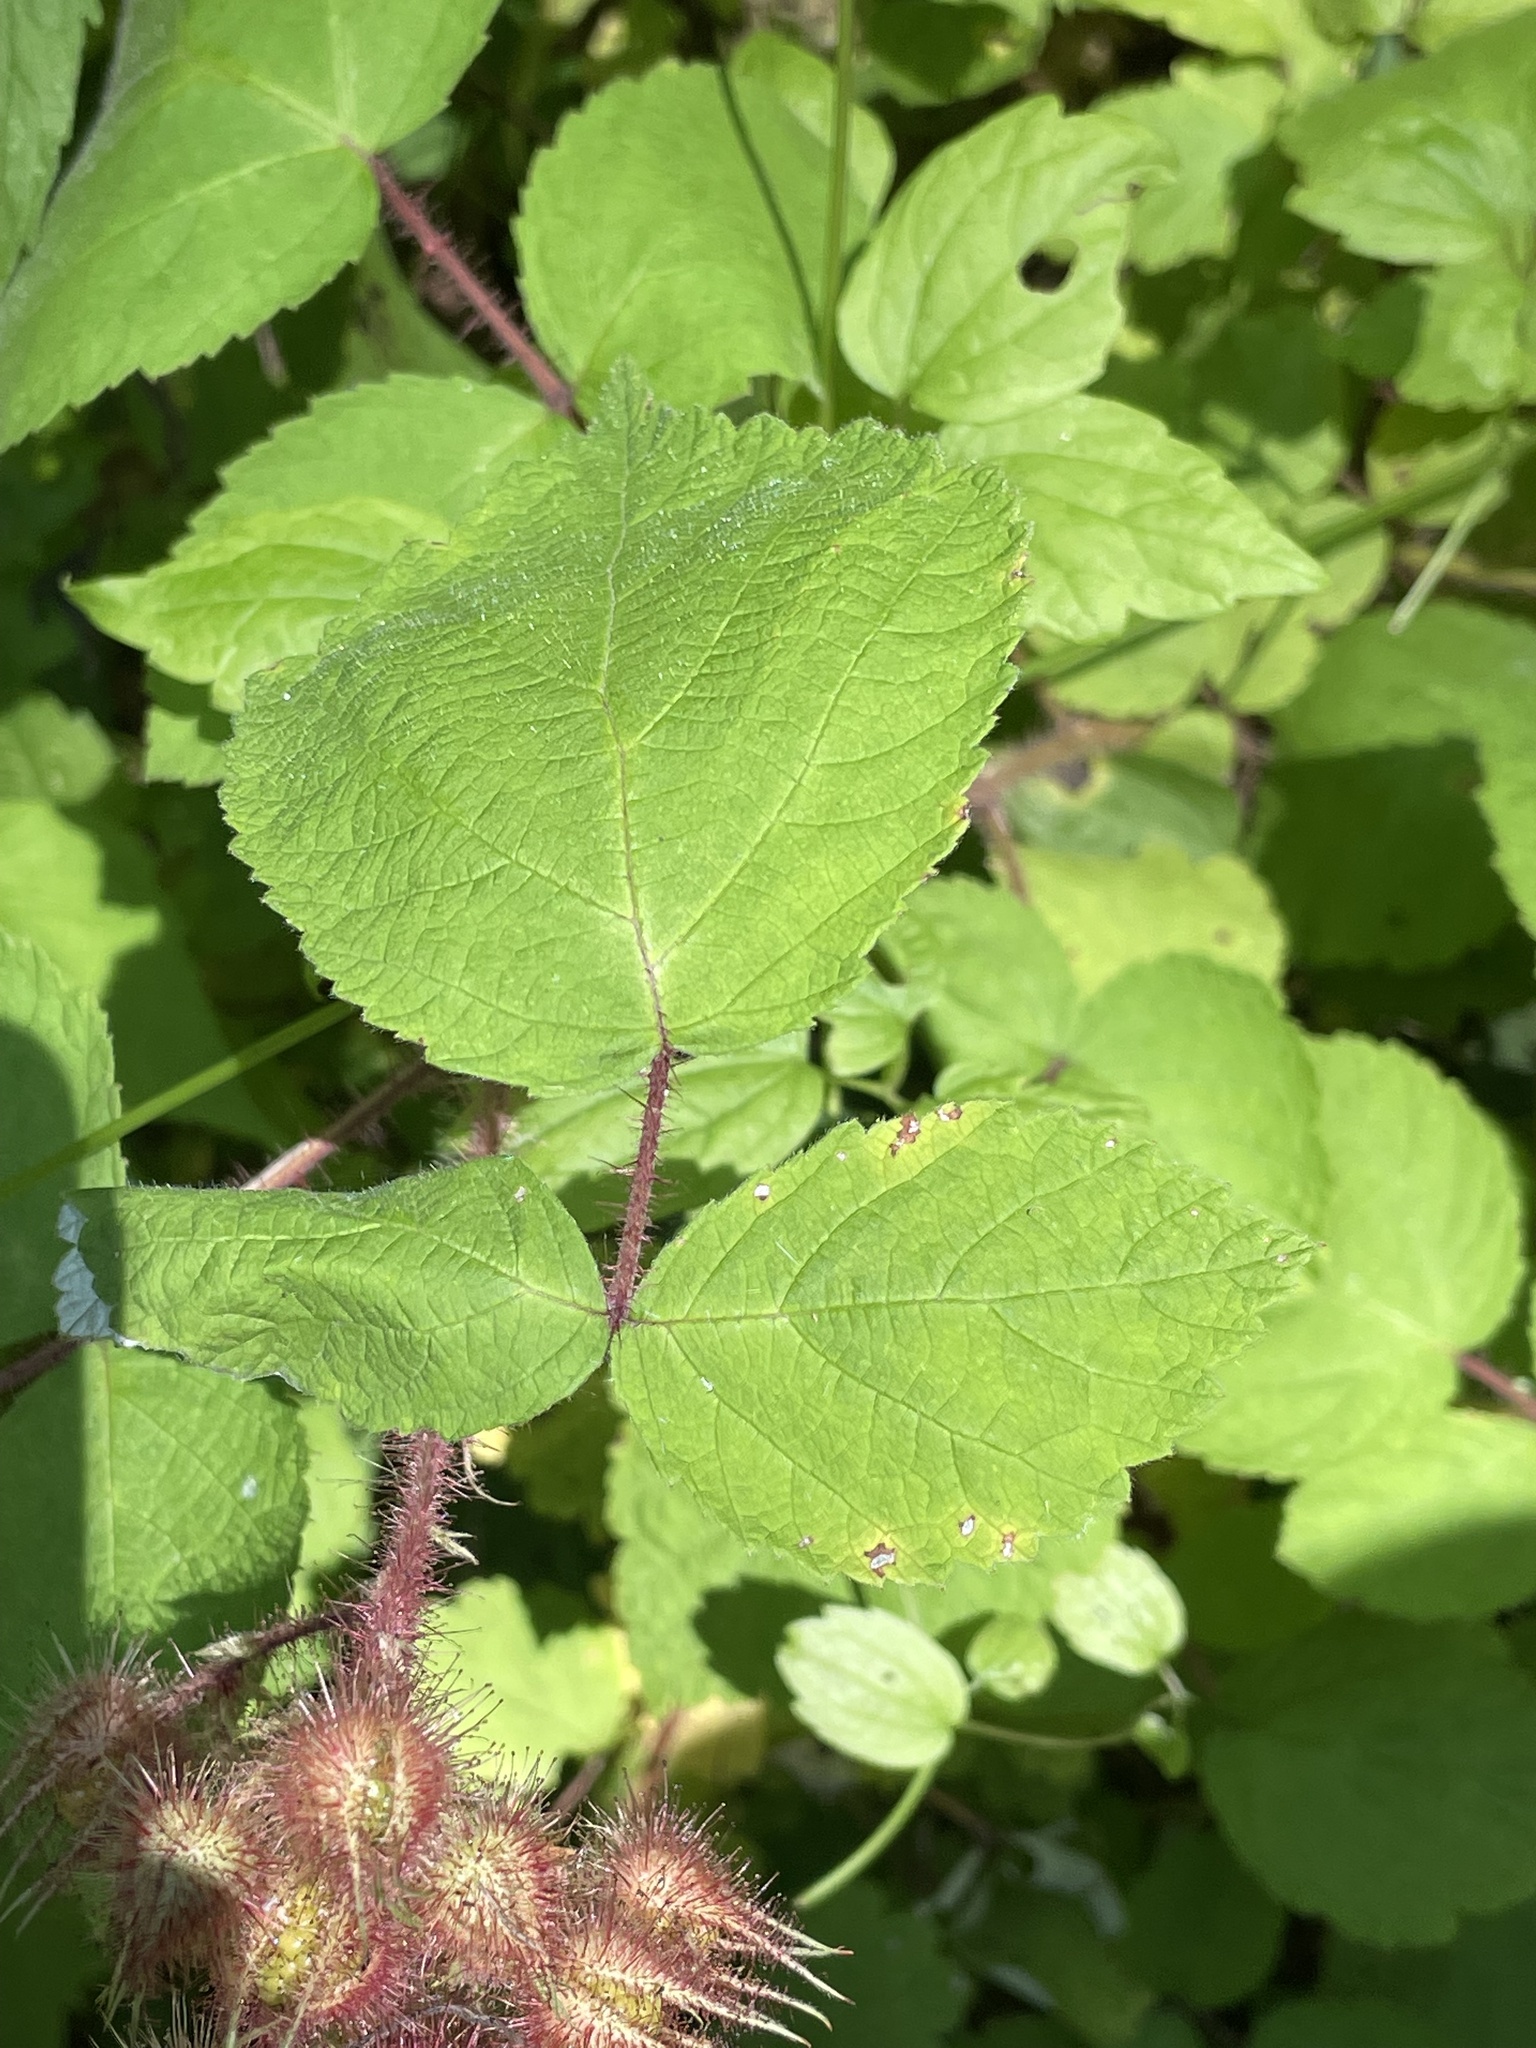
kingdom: Plantae
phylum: Tracheophyta
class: Magnoliopsida
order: Rosales
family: Rosaceae
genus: Rubus
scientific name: Rubus phoenicolasius
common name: Japanese wineberry
